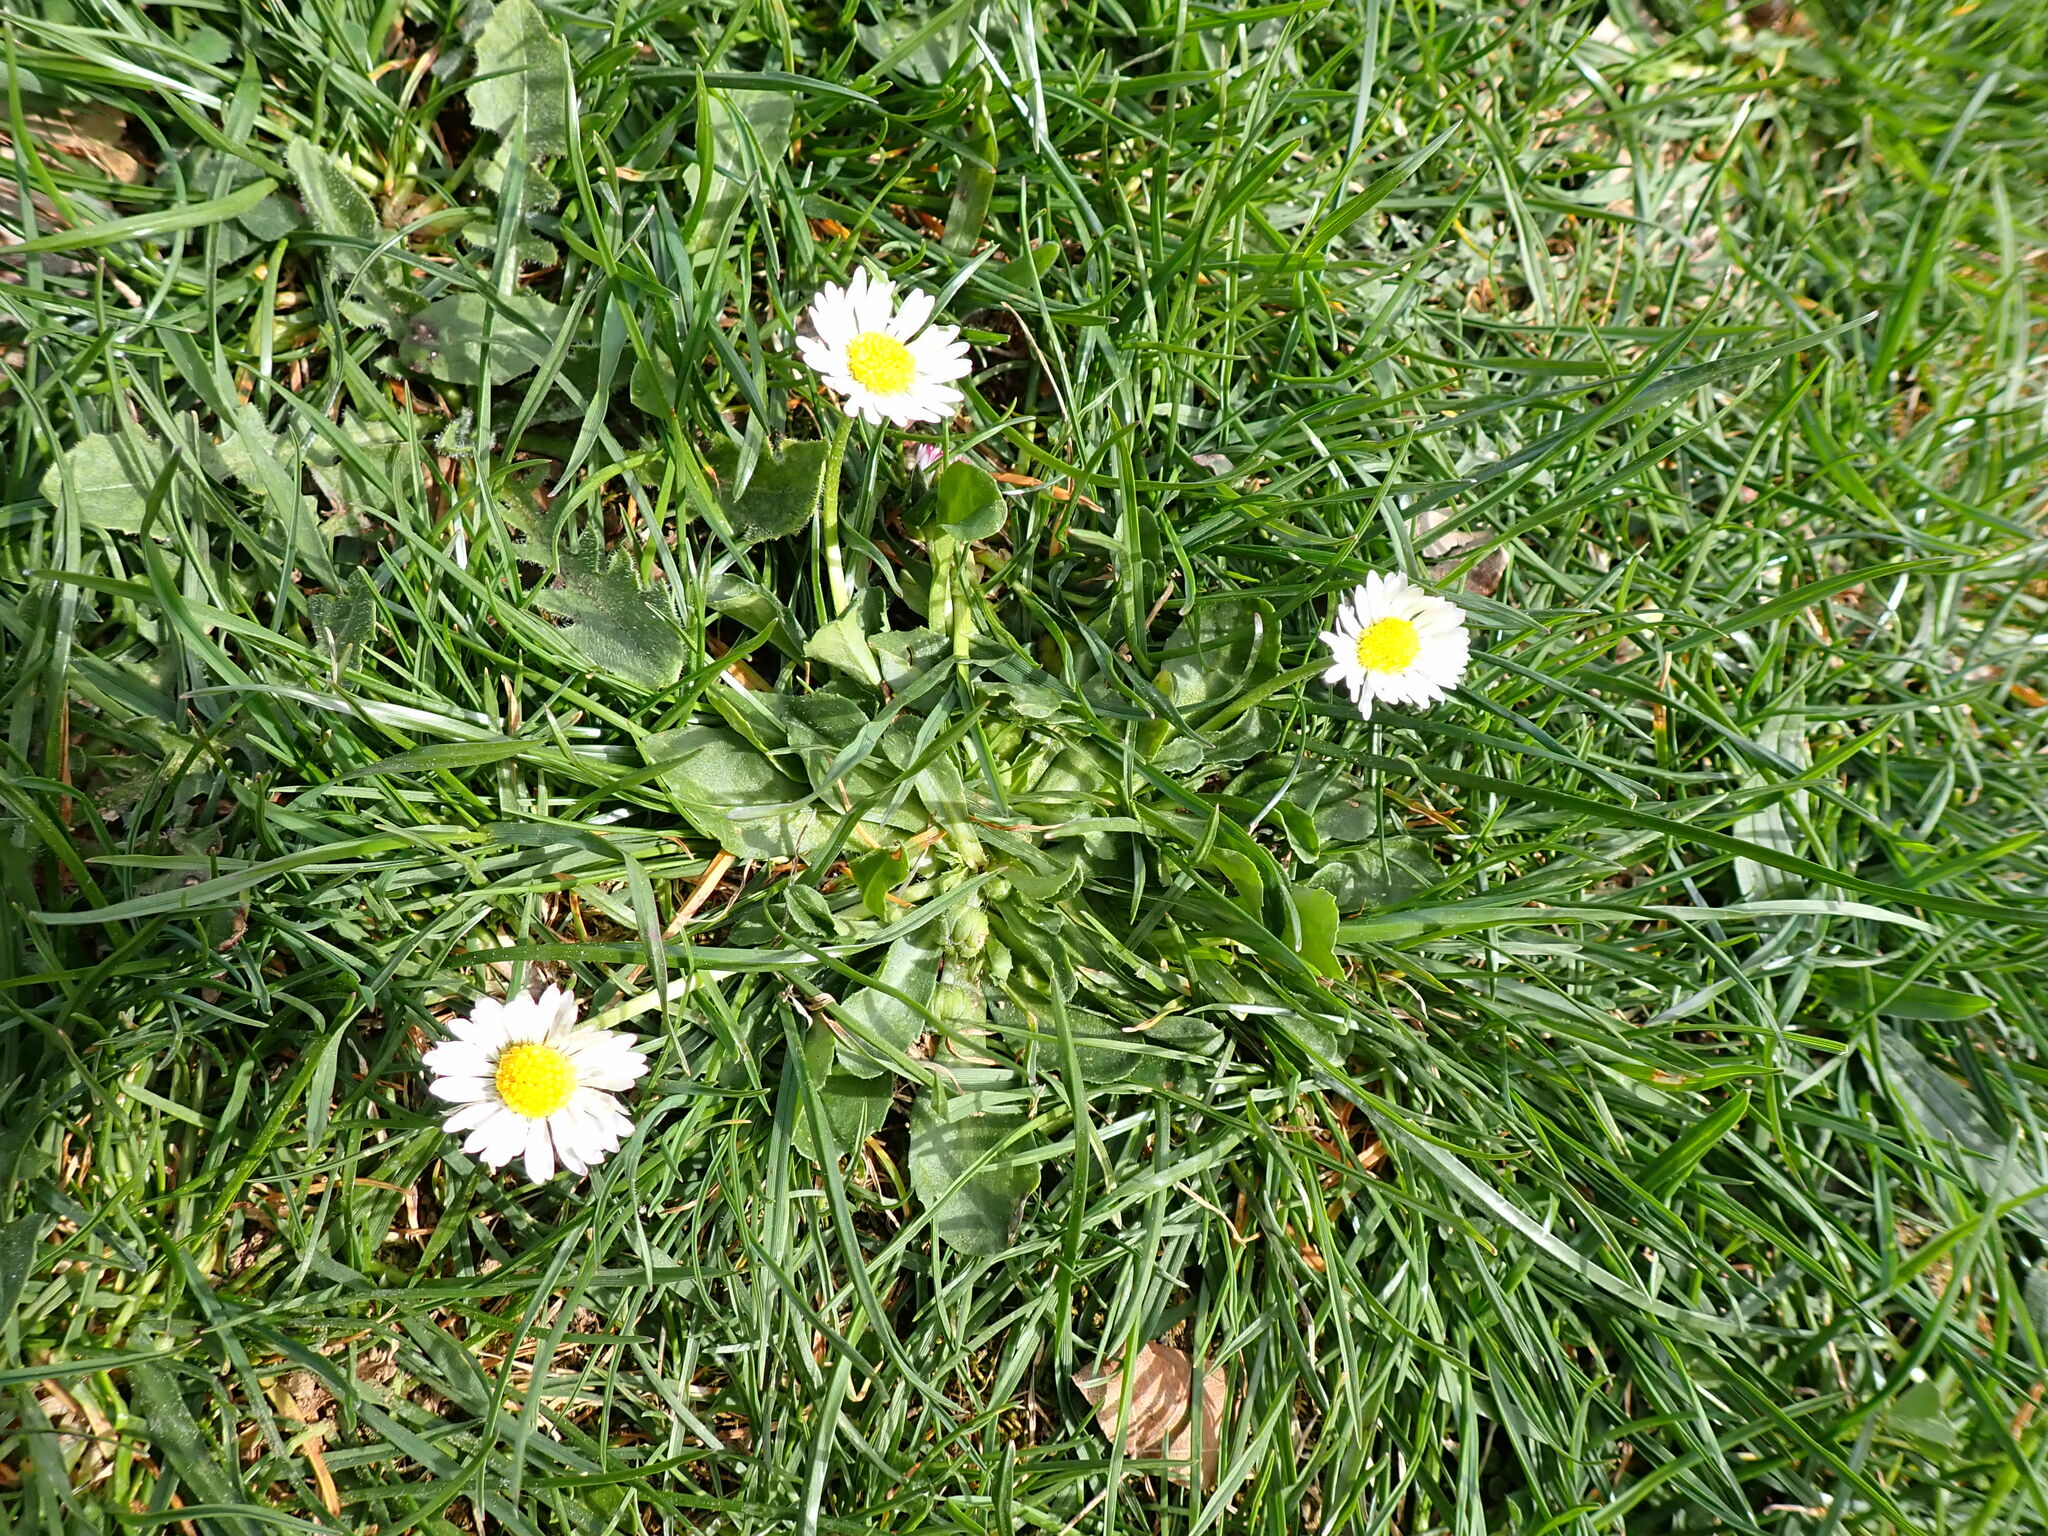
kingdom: Plantae
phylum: Tracheophyta
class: Magnoliopsida
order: Asterales
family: Asteraceae
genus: Bellis
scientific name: Bellis perennis
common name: Lawndaisy
